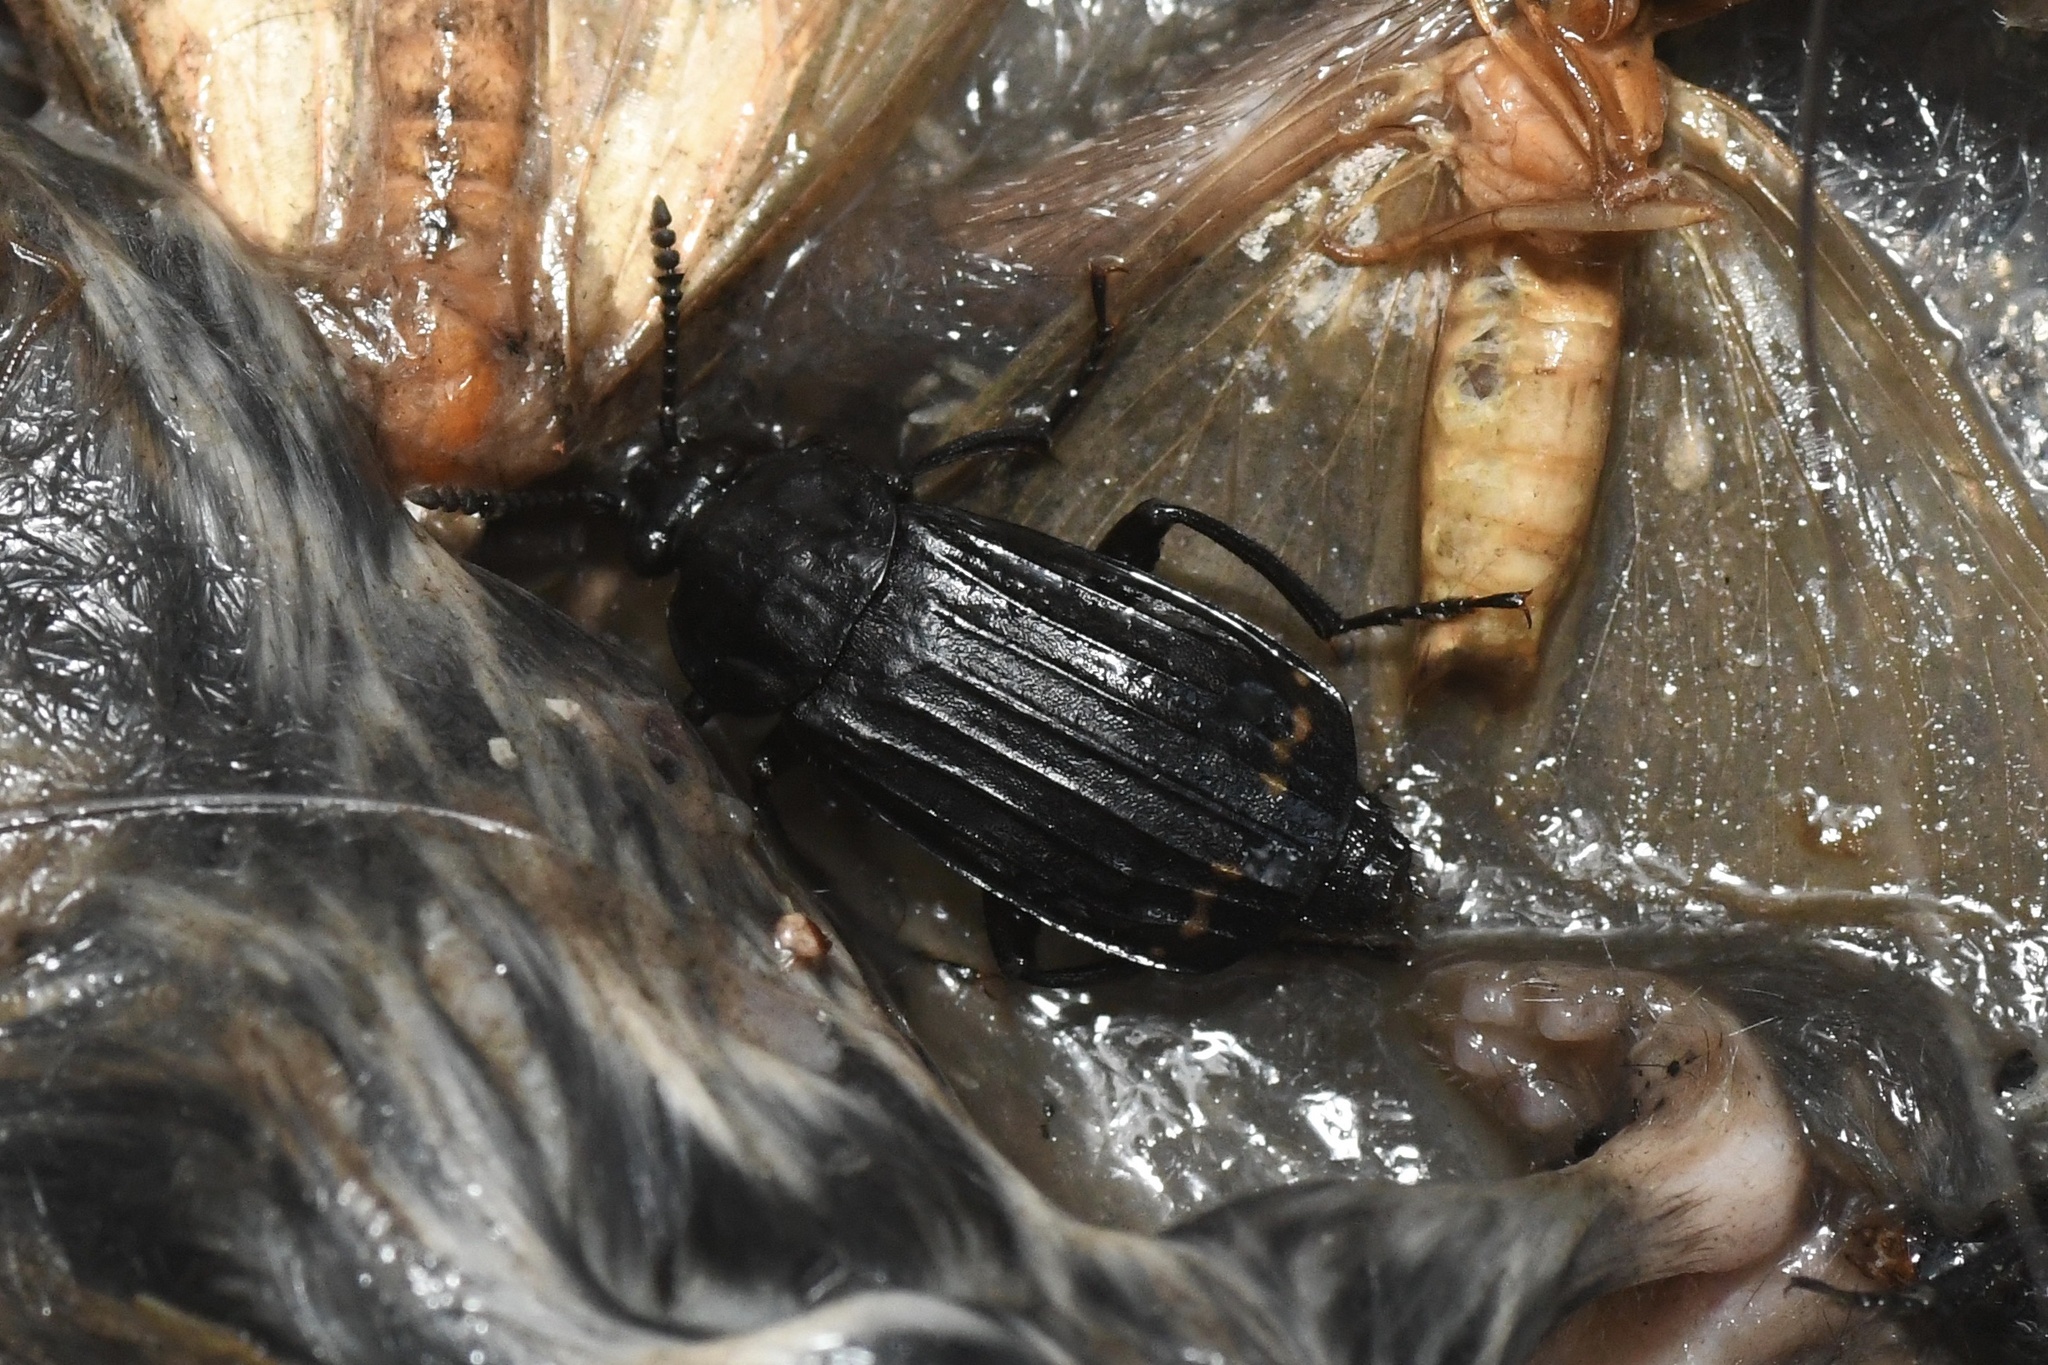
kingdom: Animalia
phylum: Arthropoda
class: Insecta
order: Coleoptera
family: Staphylinidae
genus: Necrodes
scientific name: Necrodes surinamensis
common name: Red-lined carrion beetle
